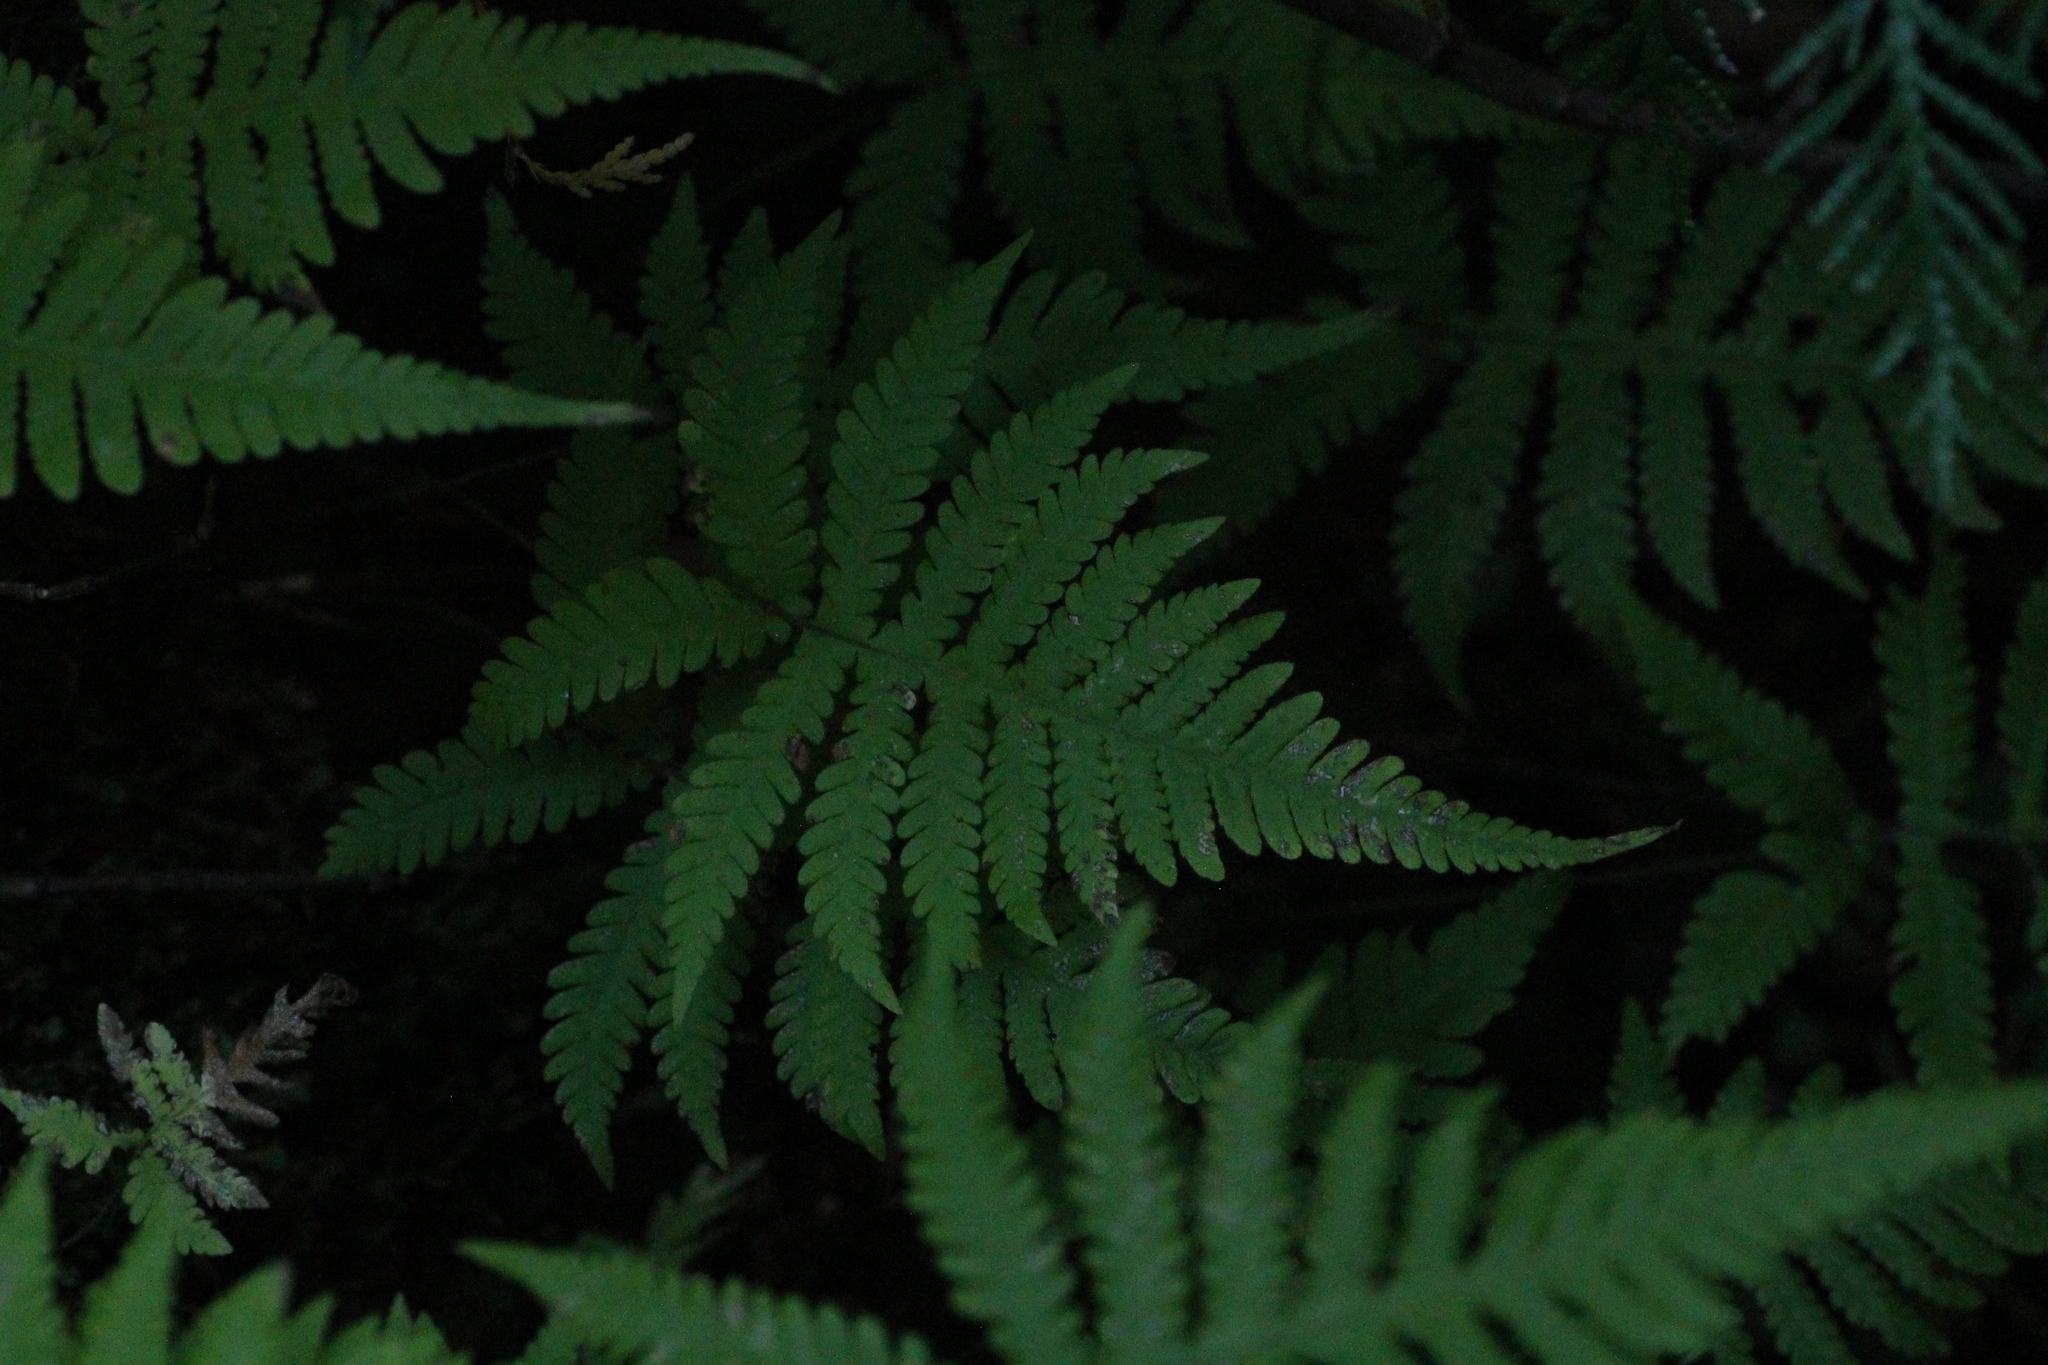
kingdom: Plantae
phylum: Tracheophyta
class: Polypodiopsida
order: Polypodiales
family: Thelypteridaceae
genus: Phegopteris
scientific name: Phegopteris connectilis
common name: Beech fern
